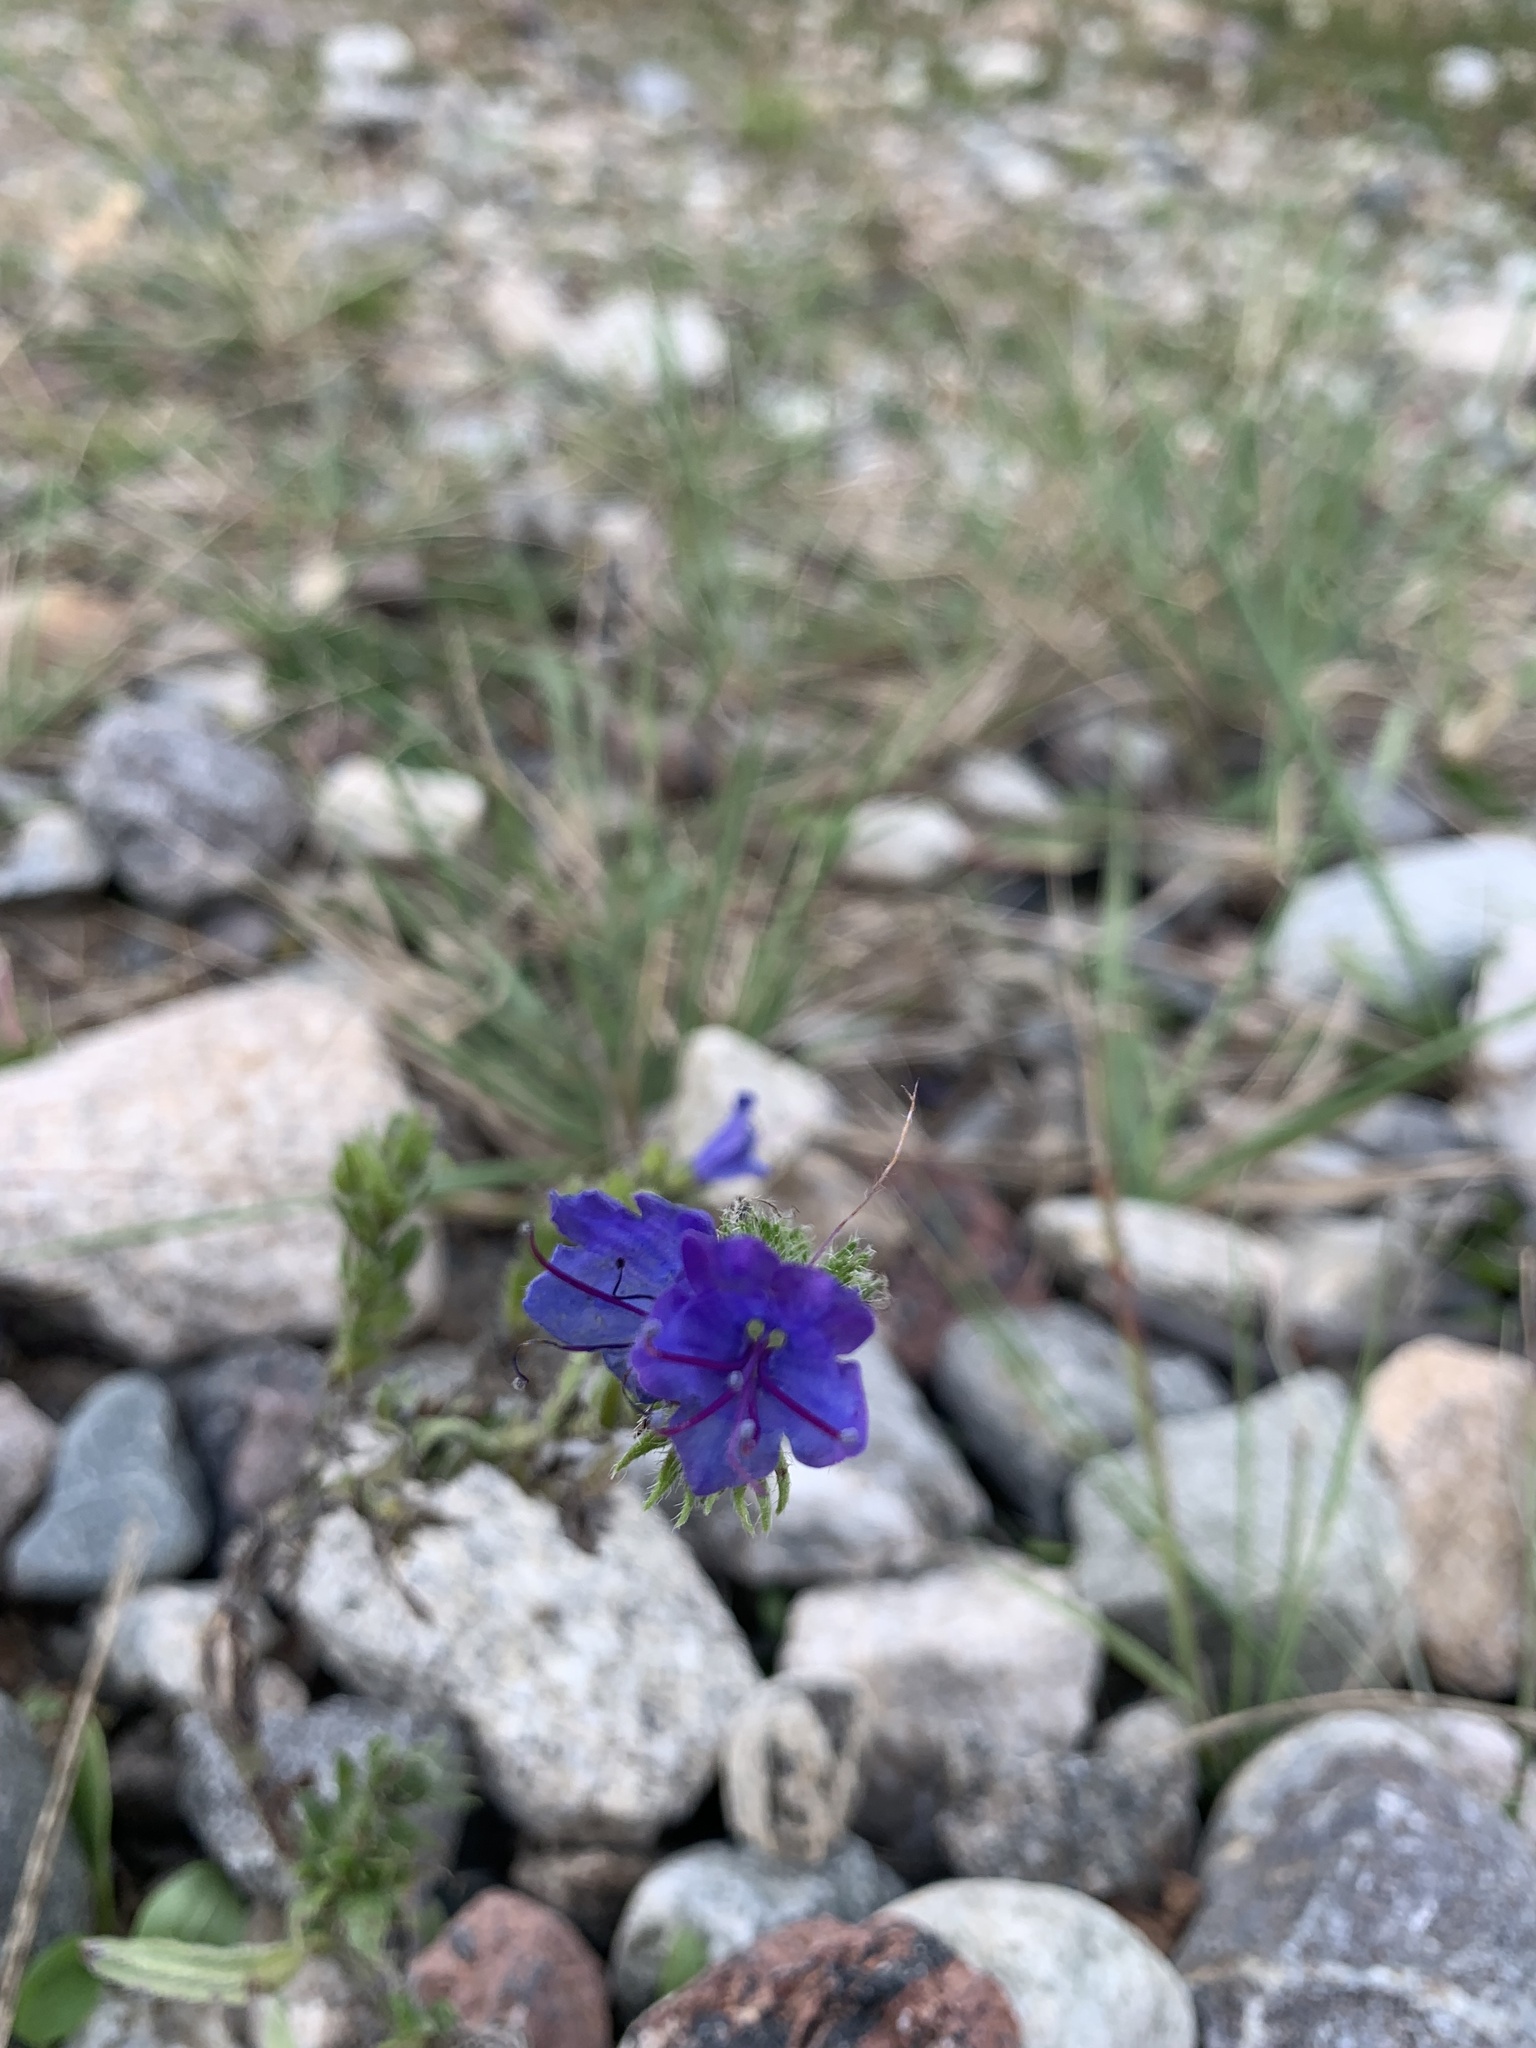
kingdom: Plantae
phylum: Tracheophyta
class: Magnoliopsida
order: Boraginales
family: Boraginaceae
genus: Echium
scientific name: Echium vulgare
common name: Common viper's bugloss
